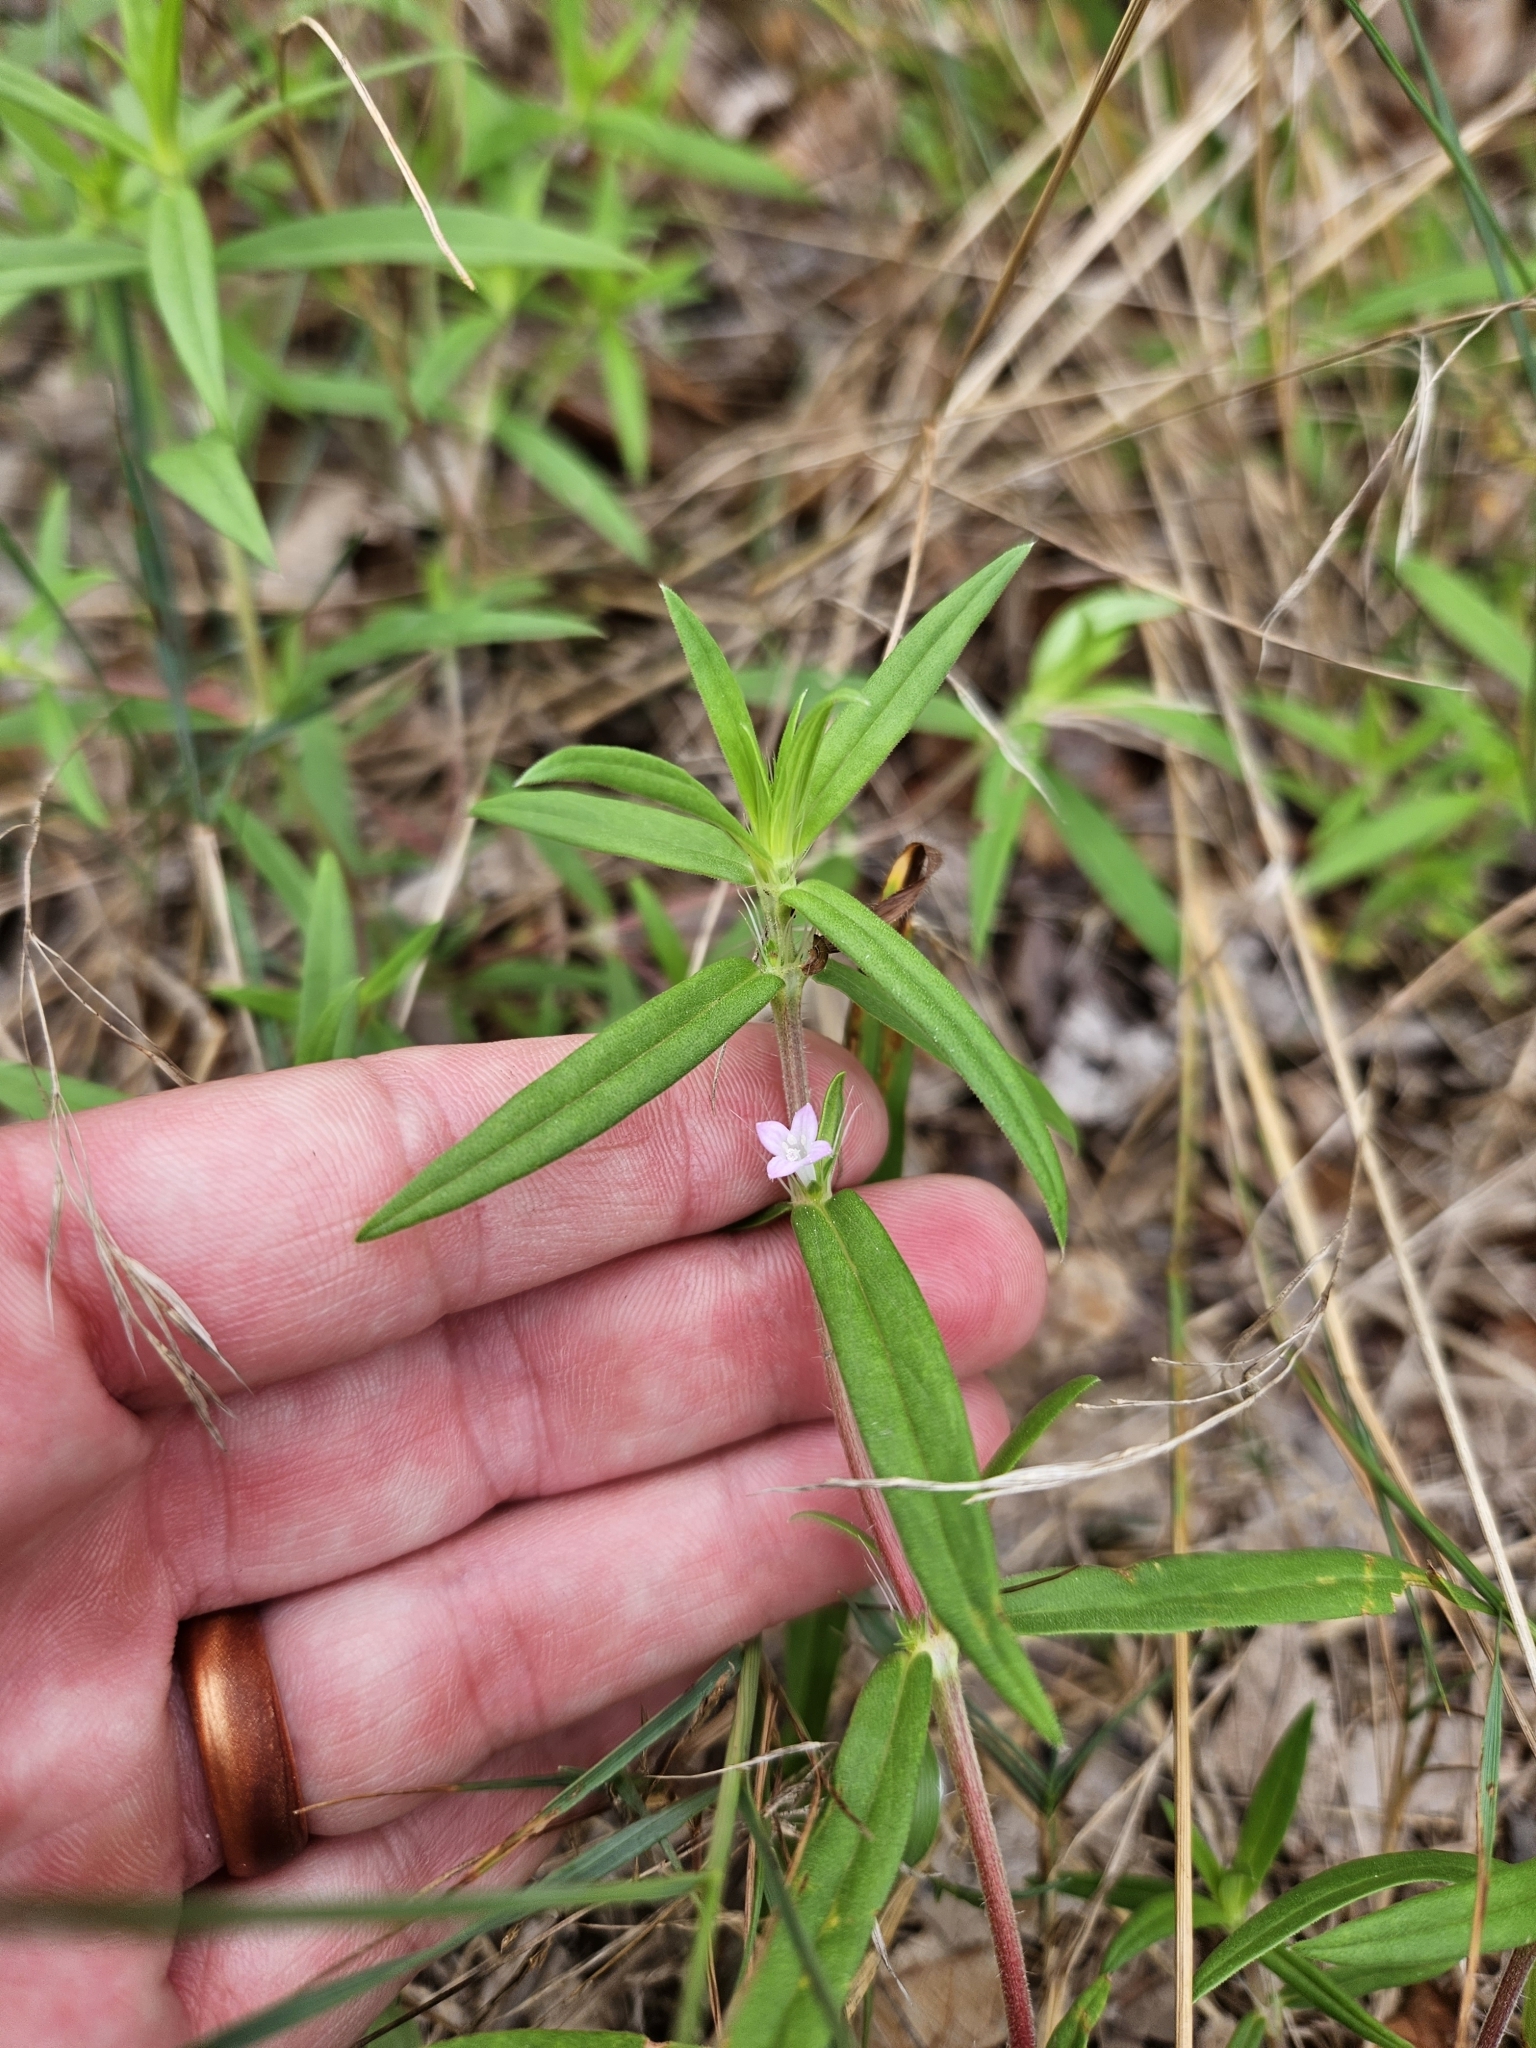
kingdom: Plantae
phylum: Tracheophyta
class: Magnoliopsida
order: Gentianales
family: Rubiaceae
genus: Hexasepalum
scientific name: Hexasepalum teres
